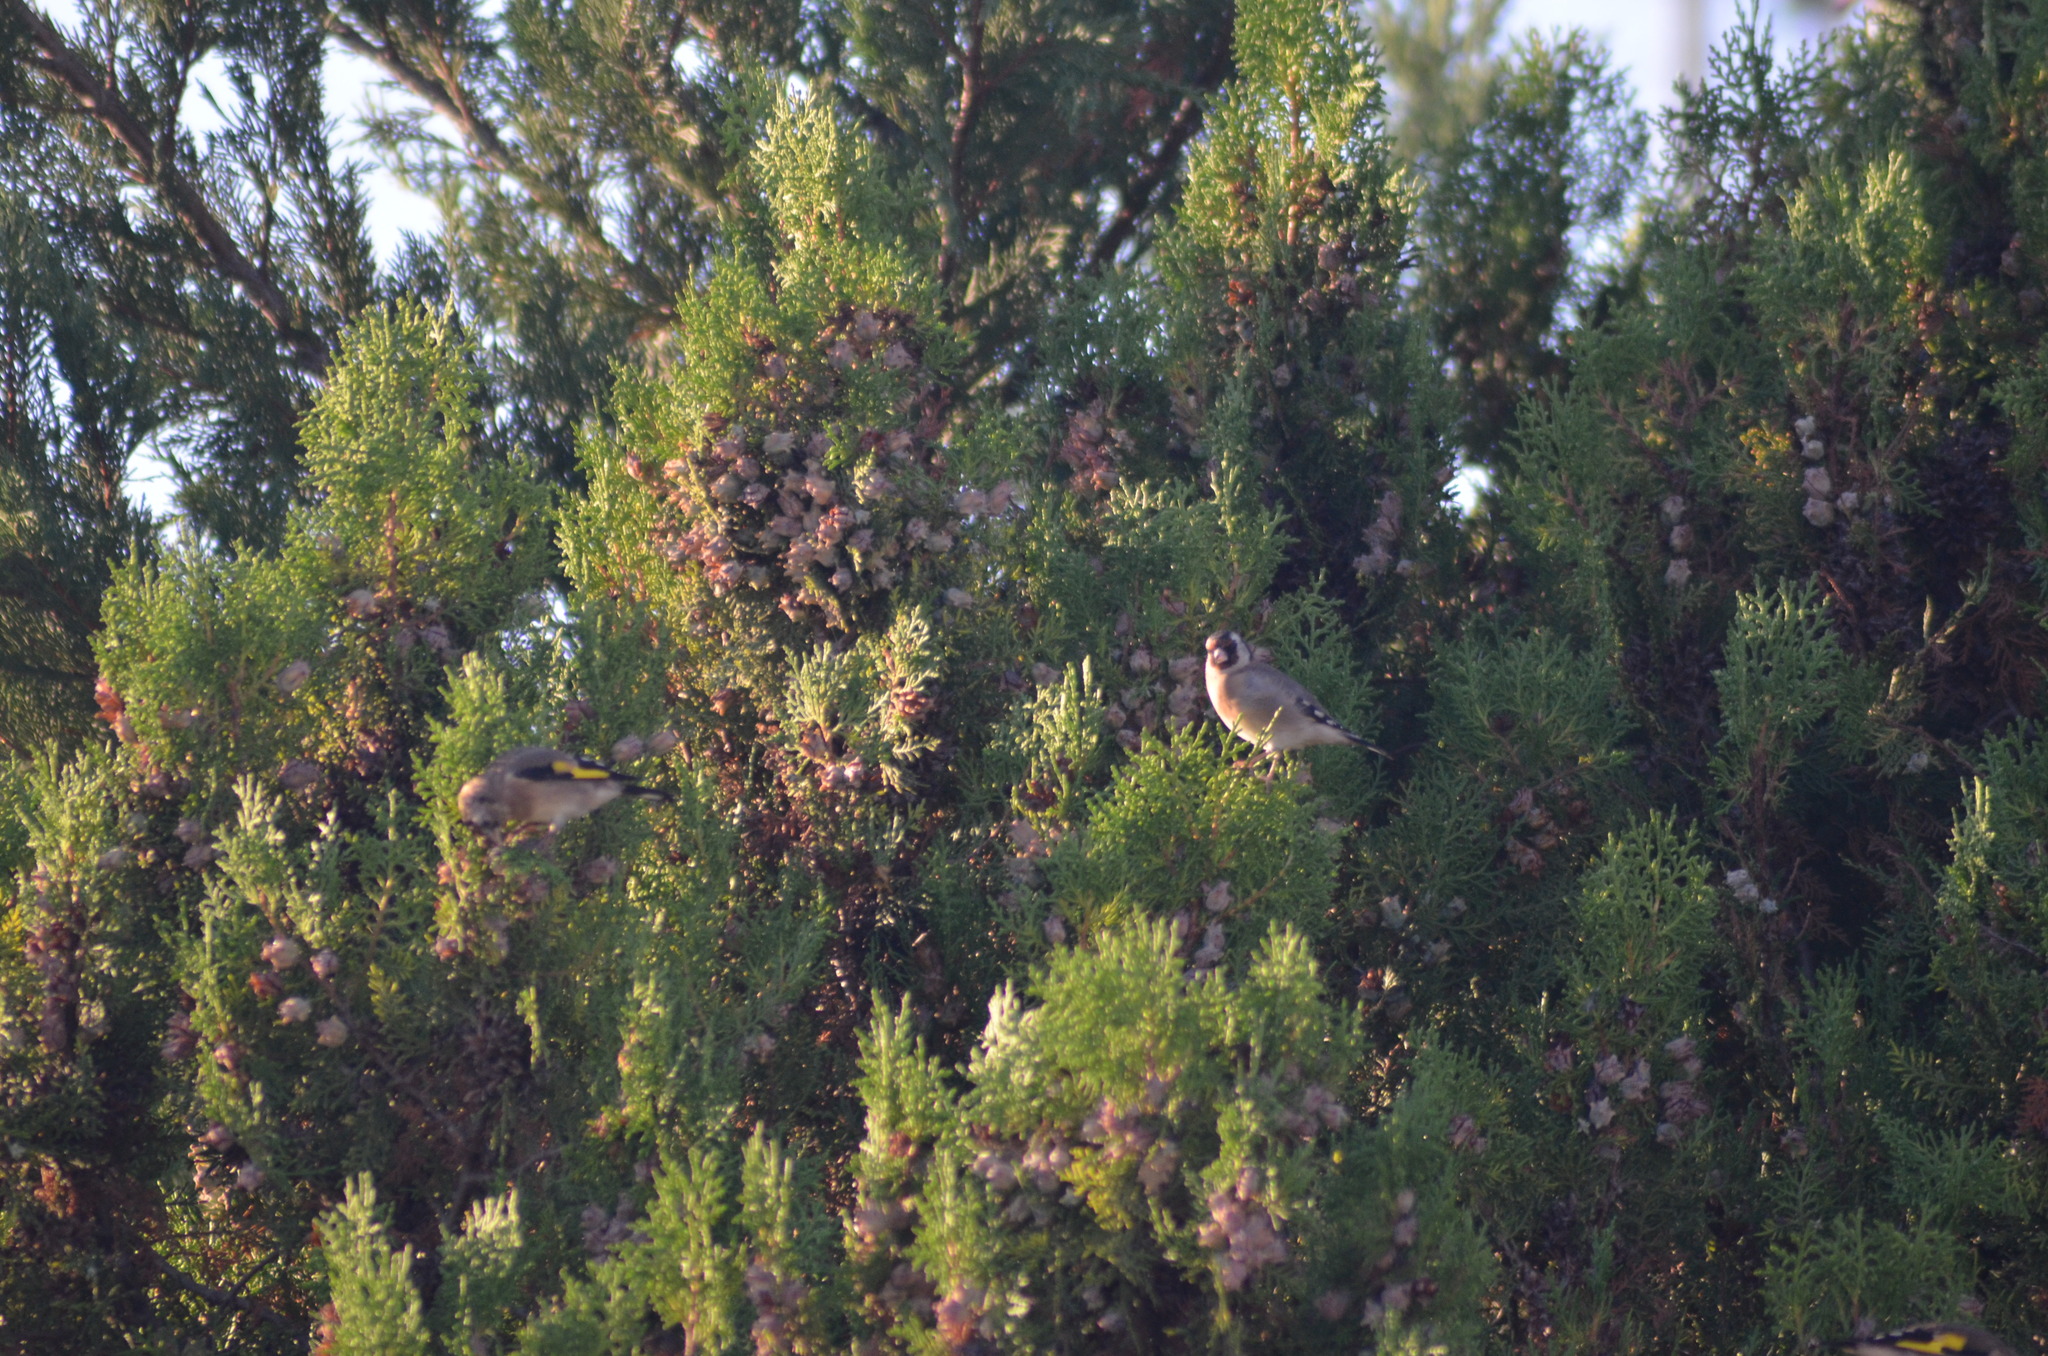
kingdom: Animalia
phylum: Chordata
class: Aves
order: Passeriformes
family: Fringillidae
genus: Carduelis
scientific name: Carduelis carduelis
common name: European goldfinch
